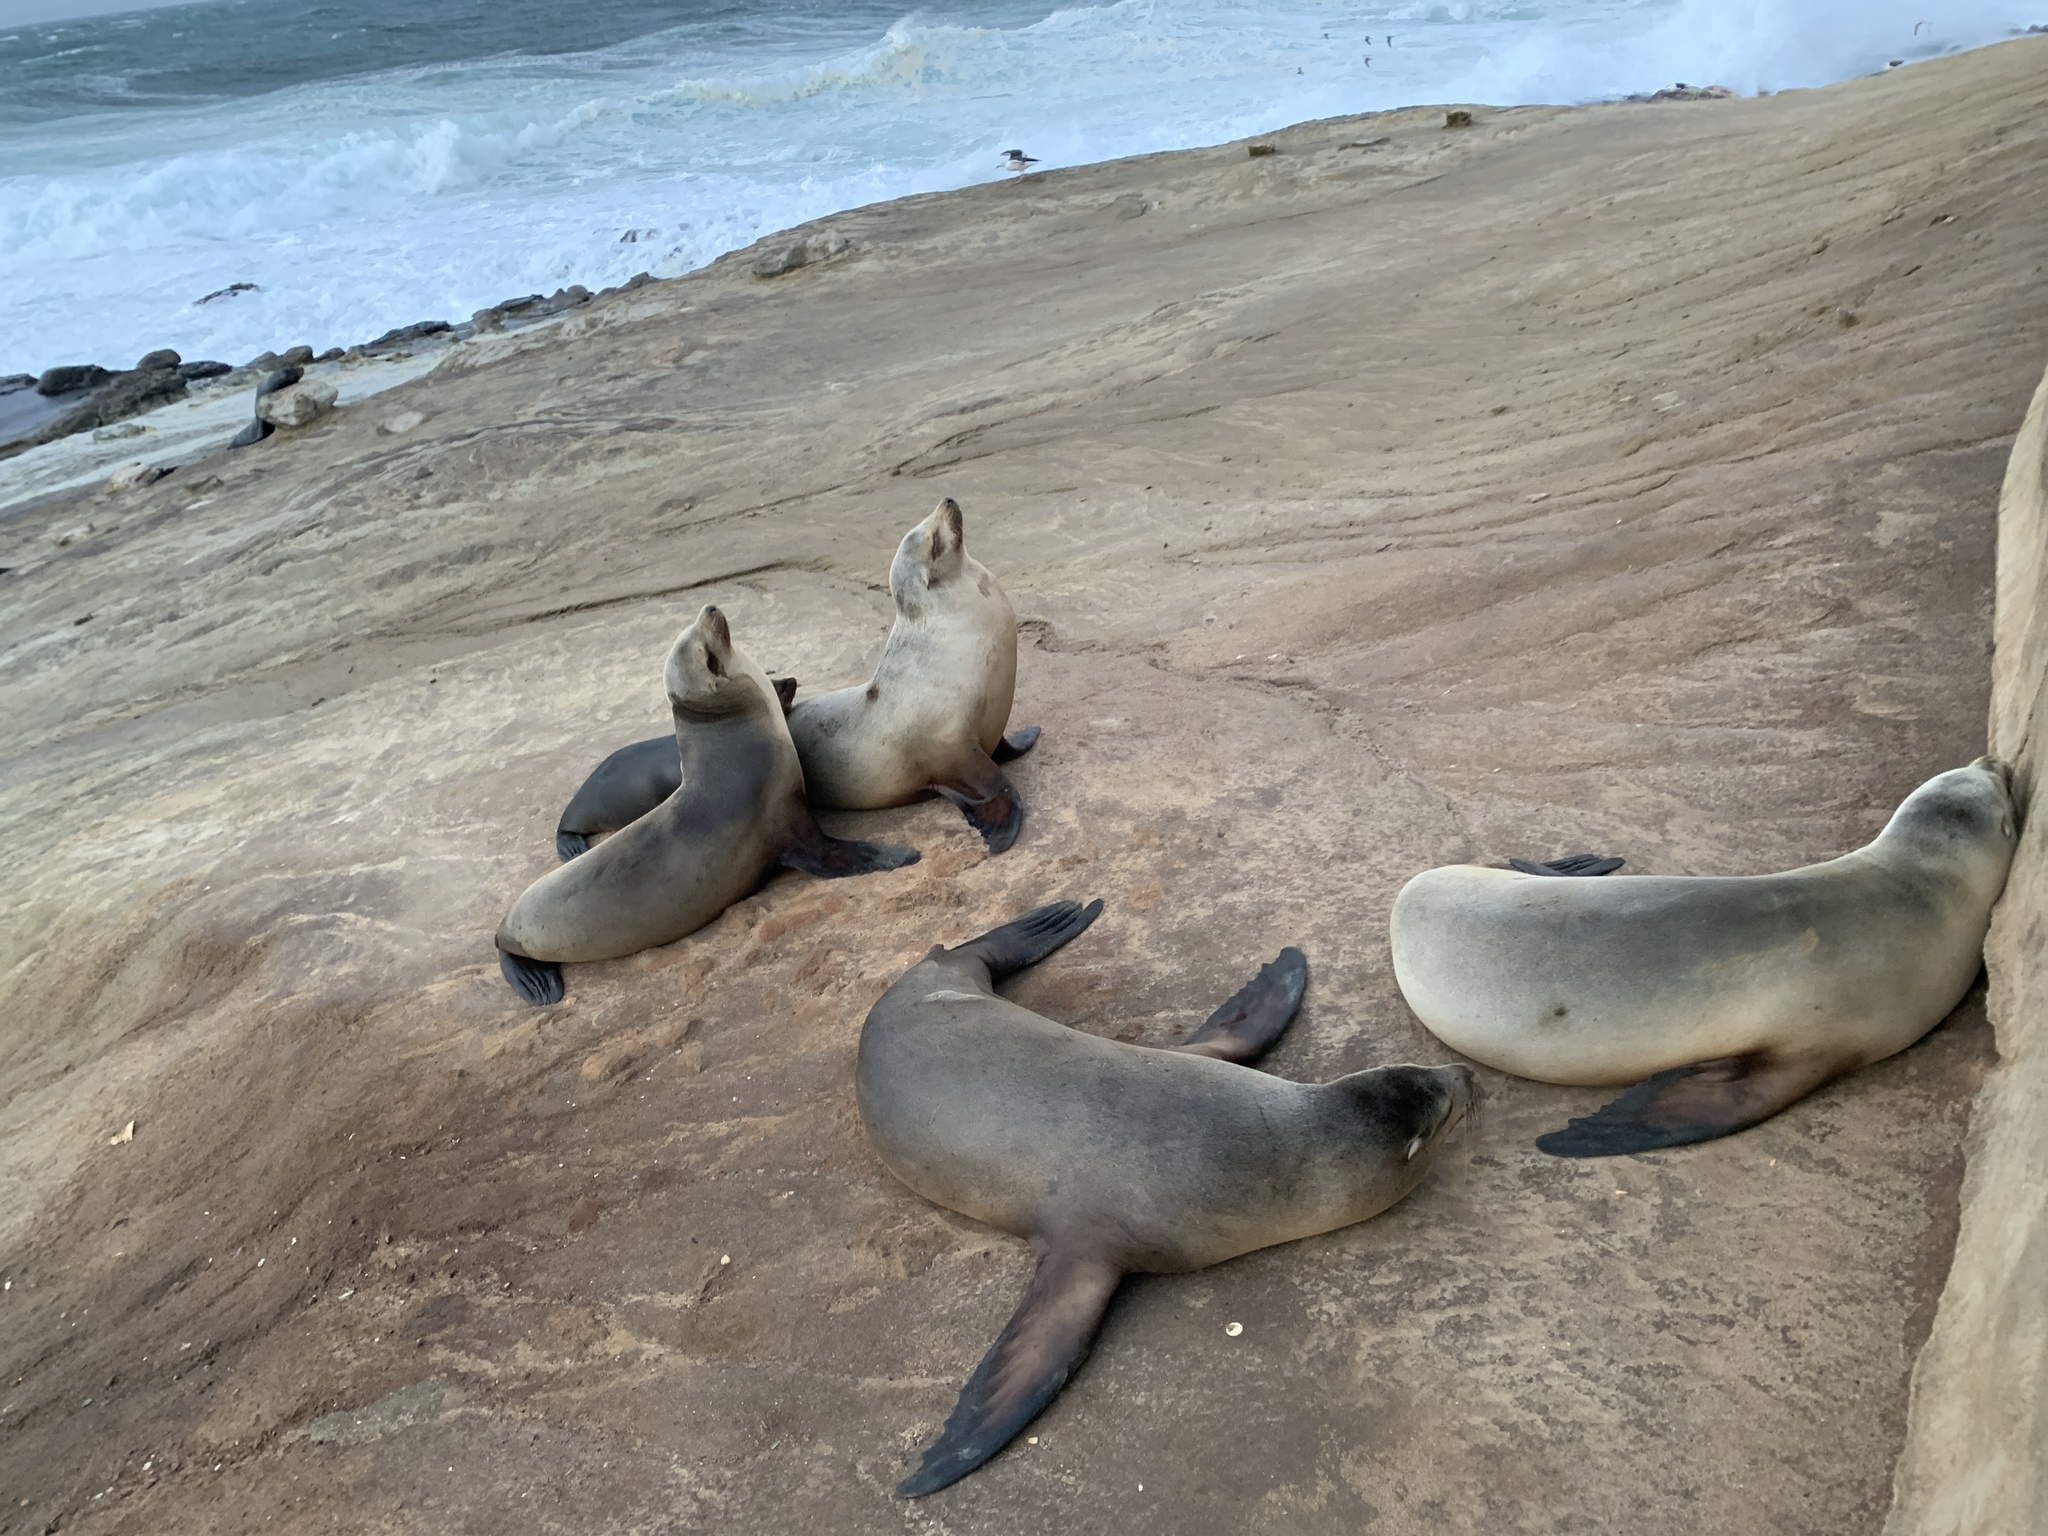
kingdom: Animalia
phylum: Chordata
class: Mammalia
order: Carnivora
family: Otariidae
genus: Zalophus
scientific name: Zalophus californianus
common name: California sea lion
